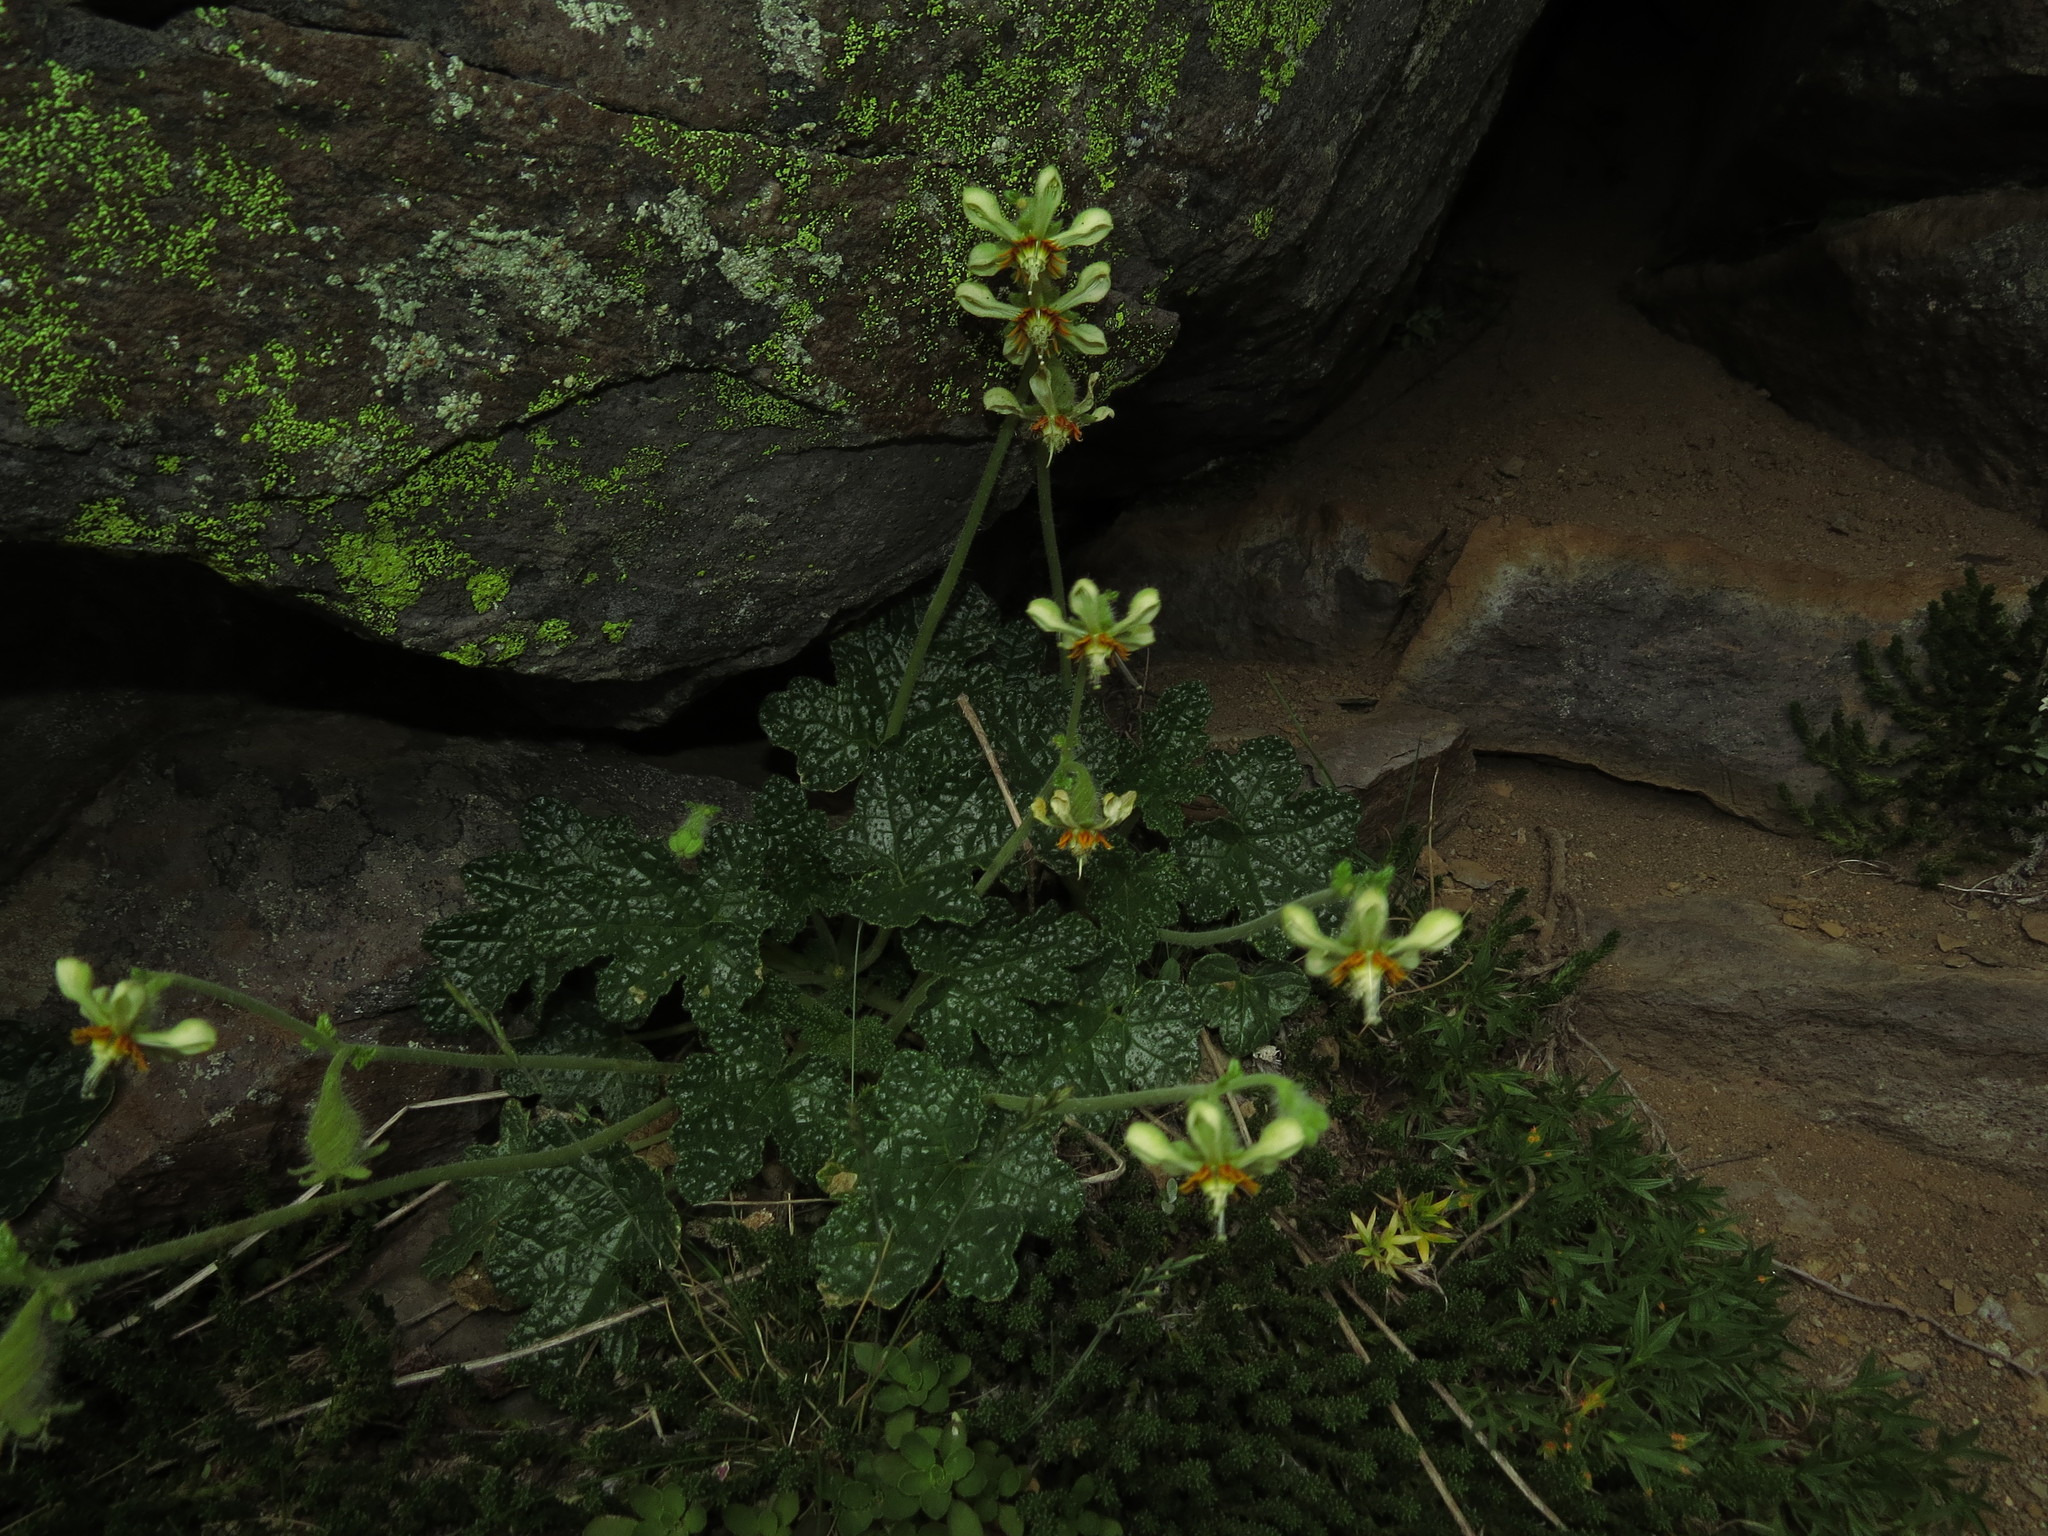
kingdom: Plantae
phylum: Tracheophyta
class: Magnoliopsida
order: Cornales
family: Loasaceae
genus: Blumenbachia
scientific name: Blumenbachia prietea
